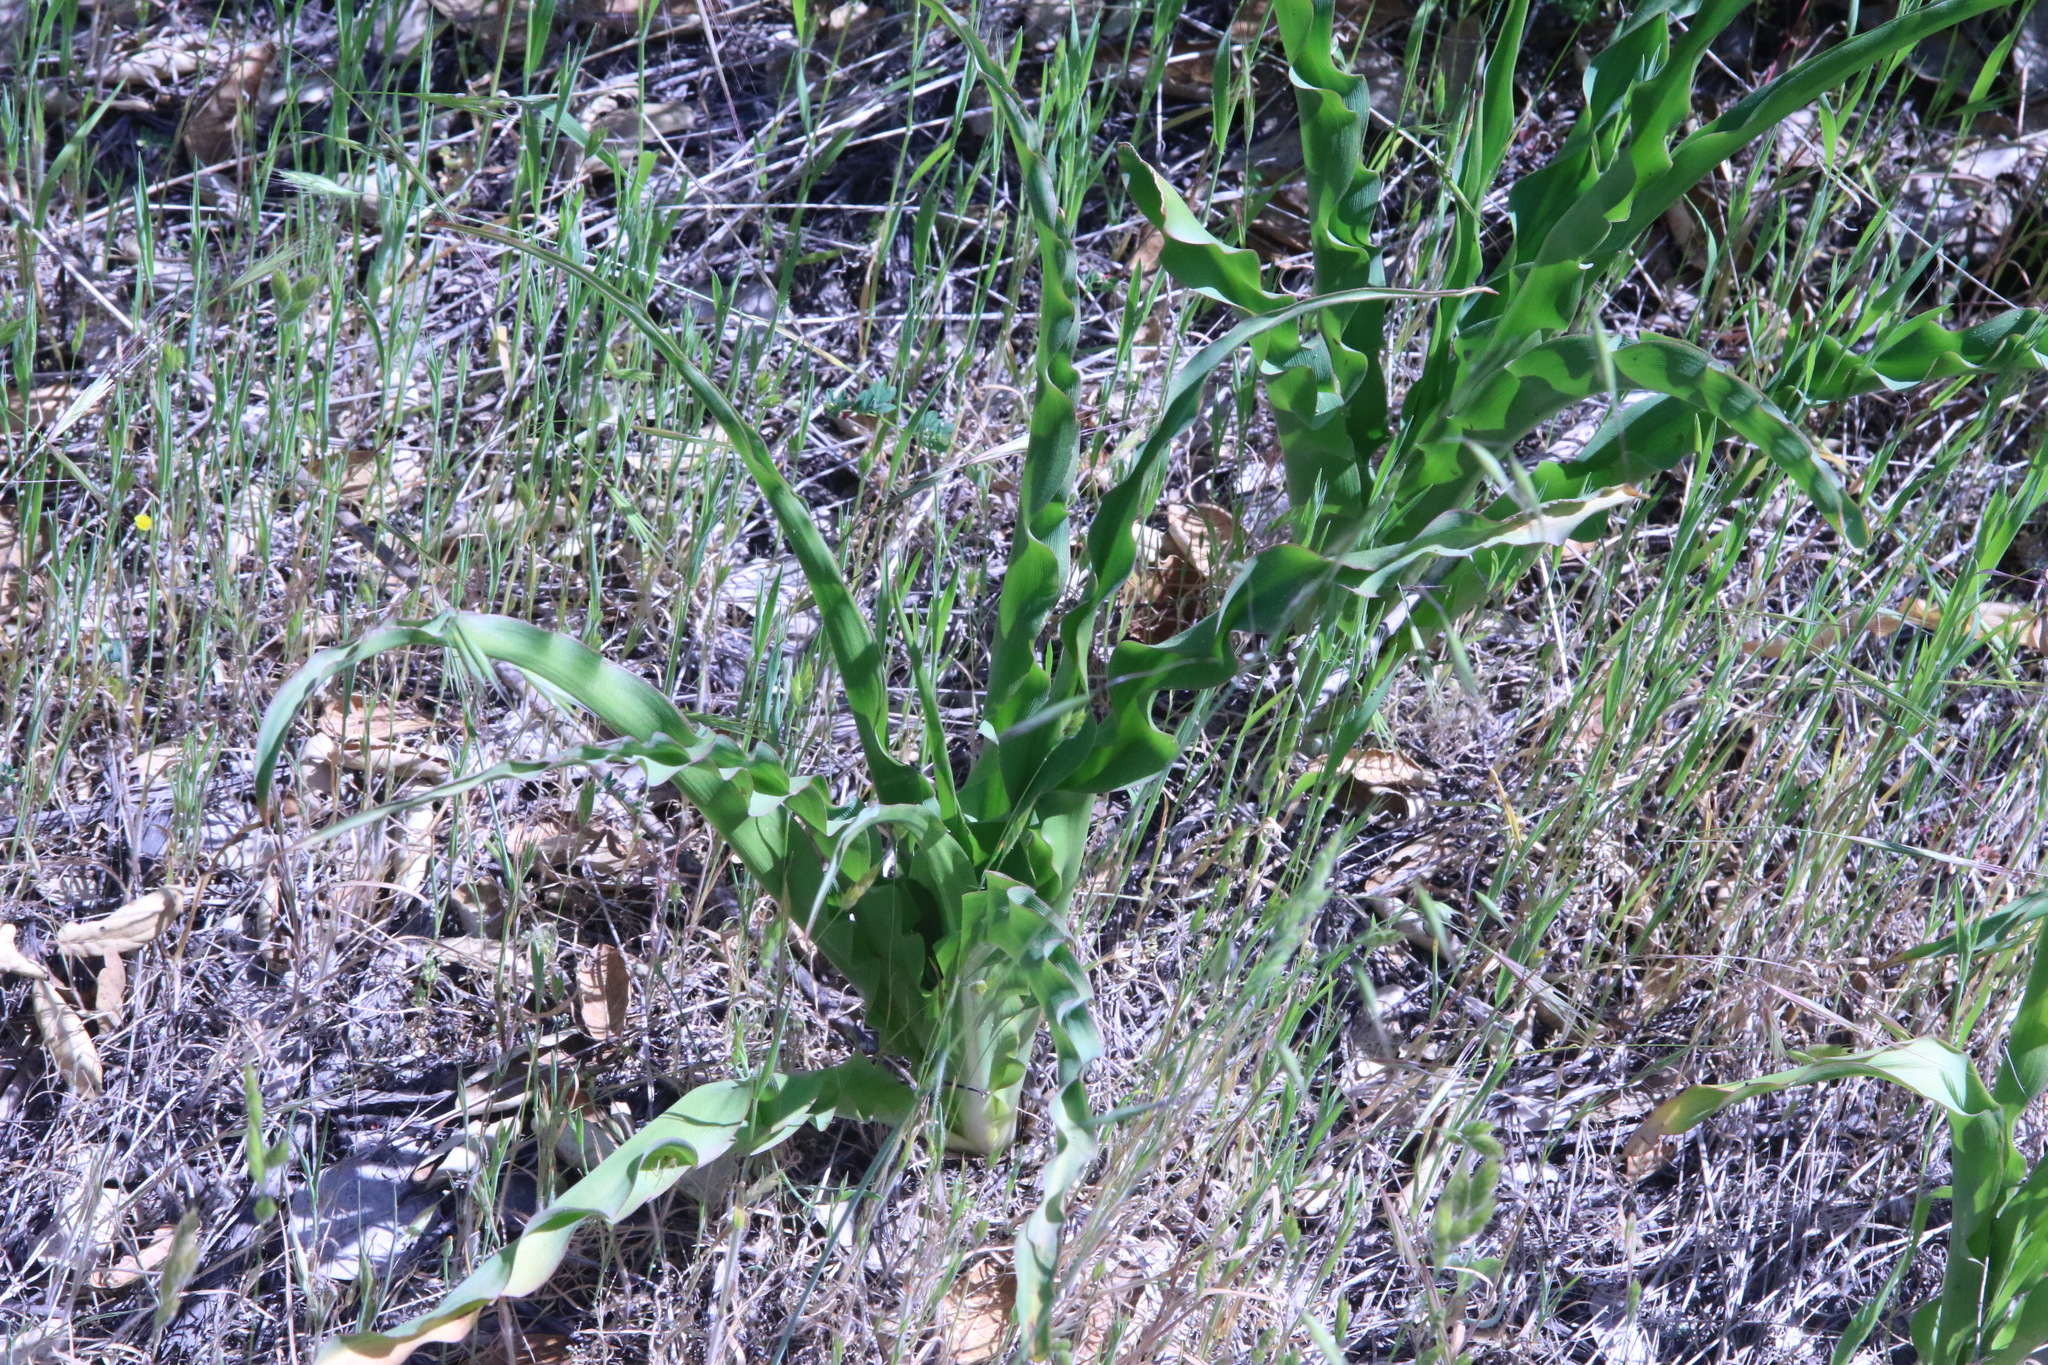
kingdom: Plantae
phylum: Tracheophyta
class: Liliopsida
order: Asparagales
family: Asparagaceae
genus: Chlorogalum
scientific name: Chlorogalum pomeridianum
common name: Amole
